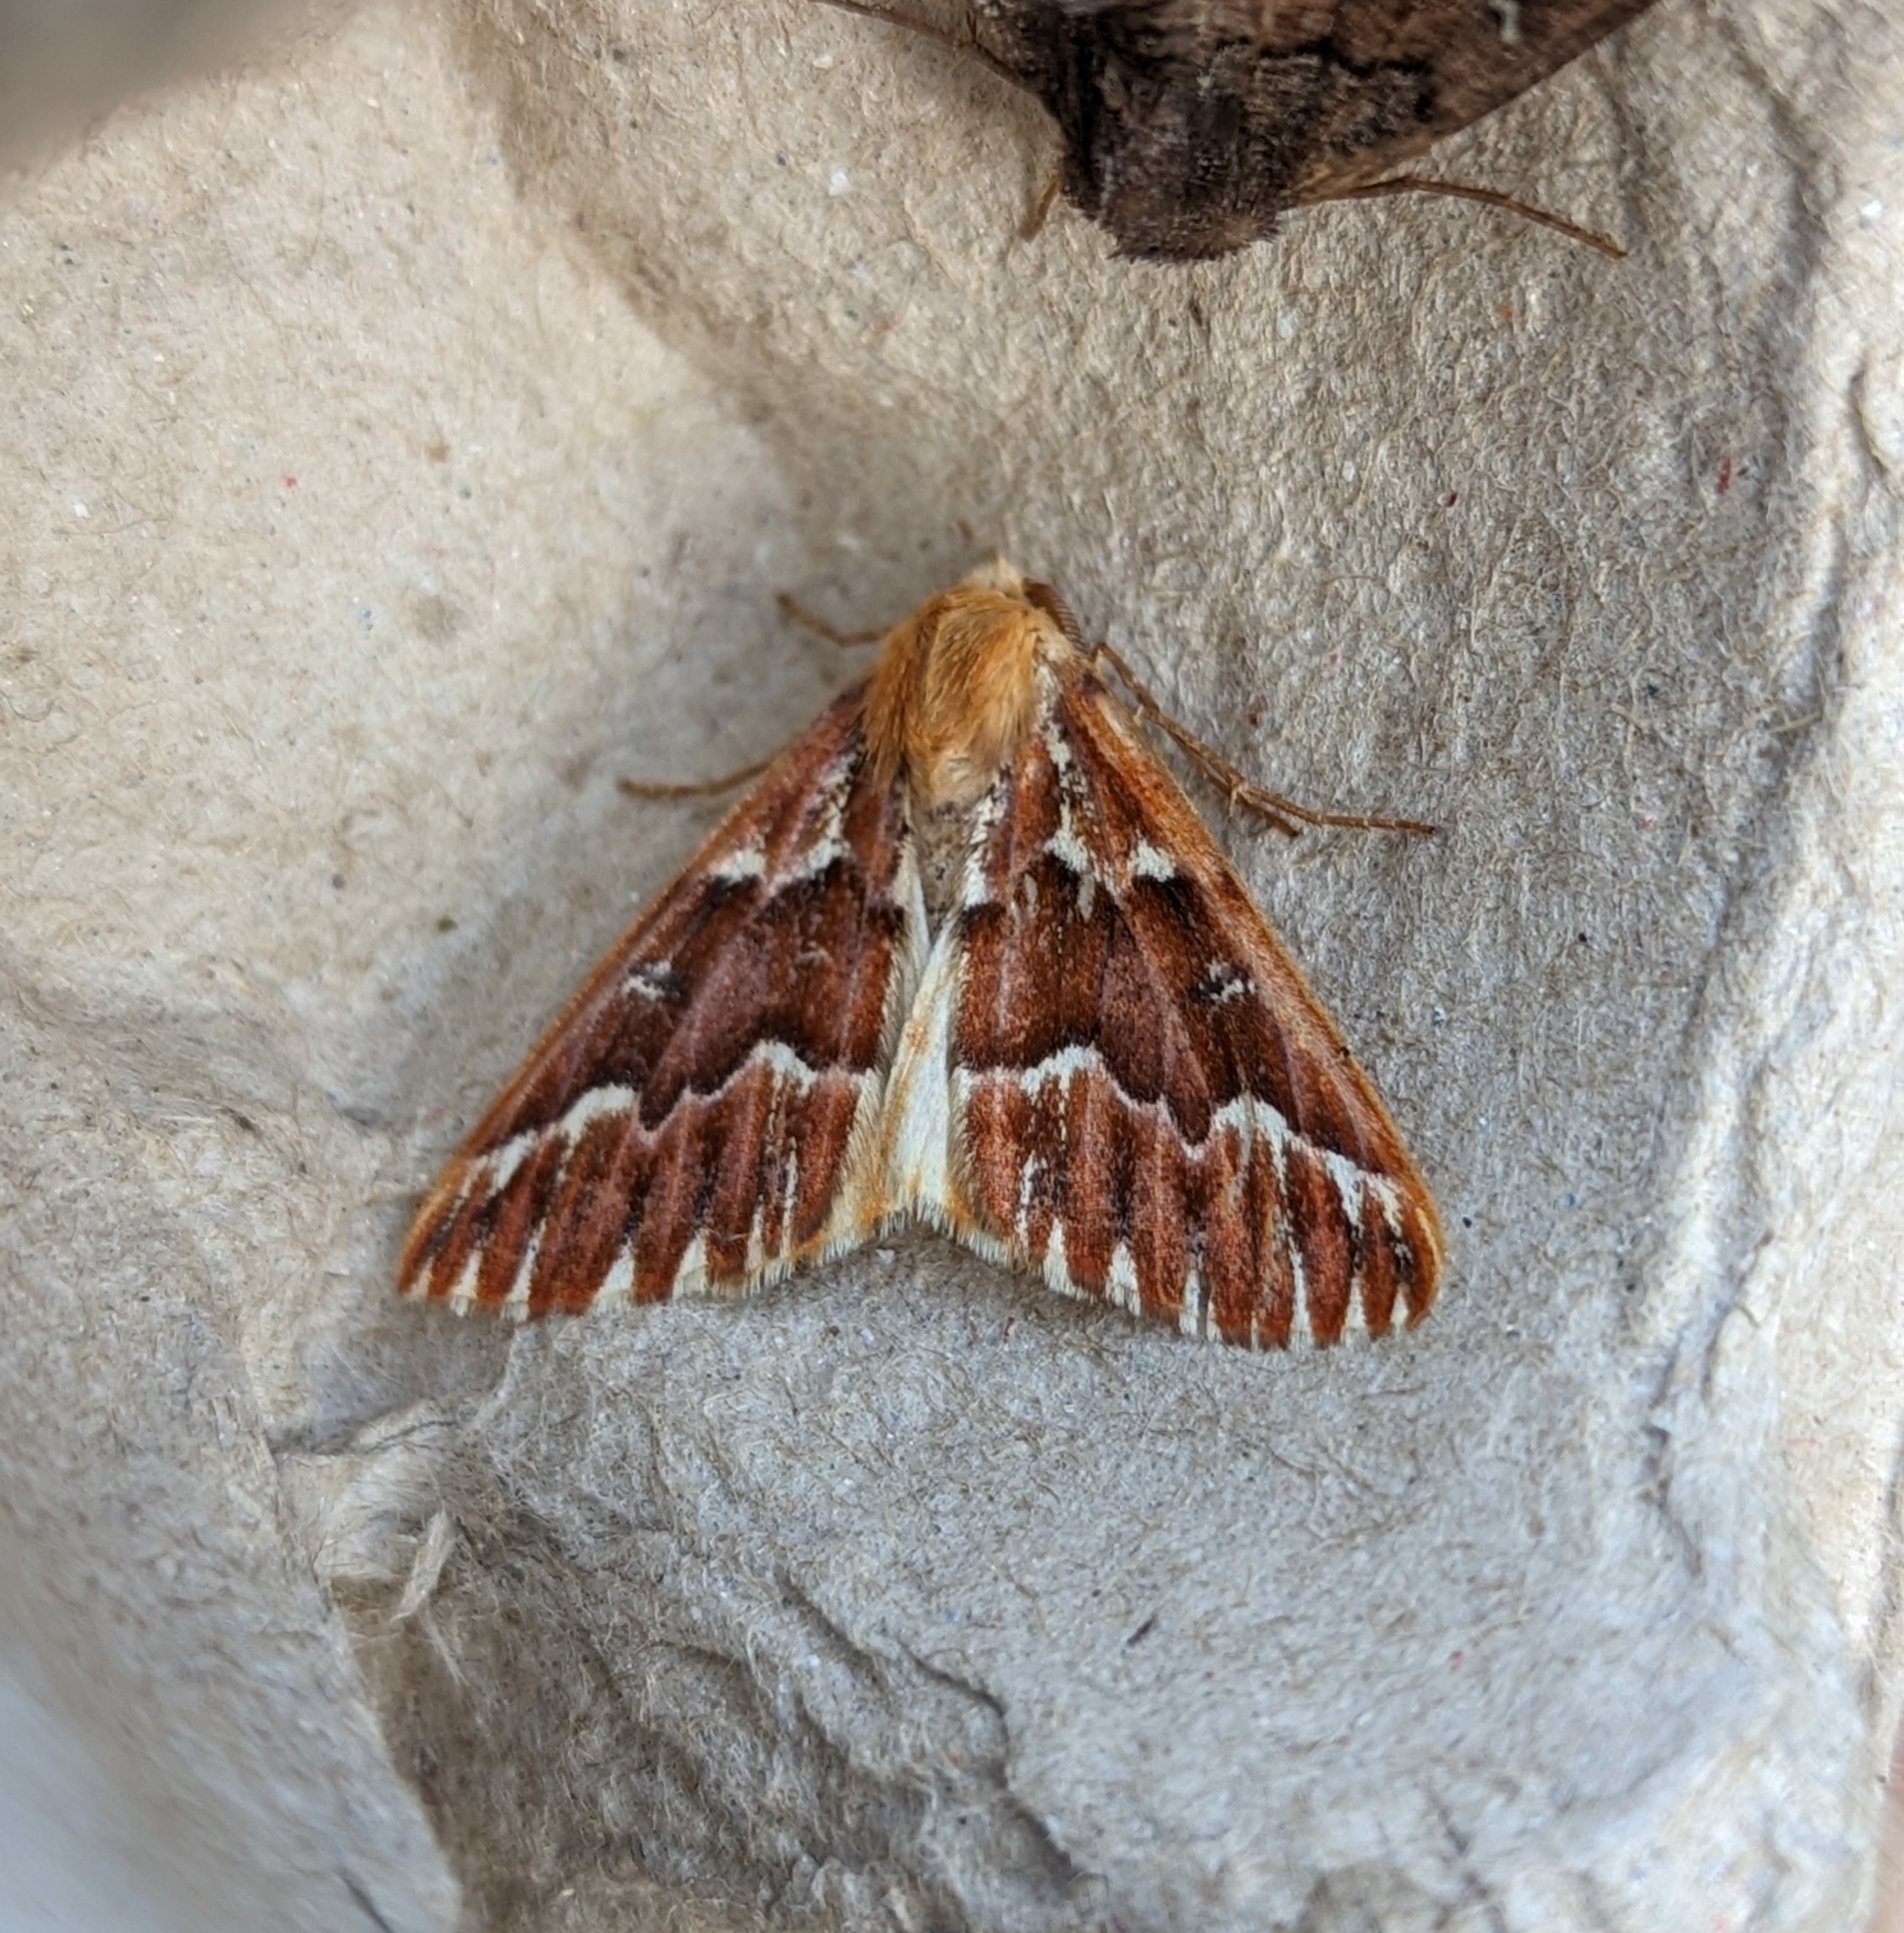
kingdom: Animalia
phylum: Arthropoda
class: Insecta
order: Lepidoptera
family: Geometridae
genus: Caripeta
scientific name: Caripeta aequaliaria
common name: Red girdle moth
